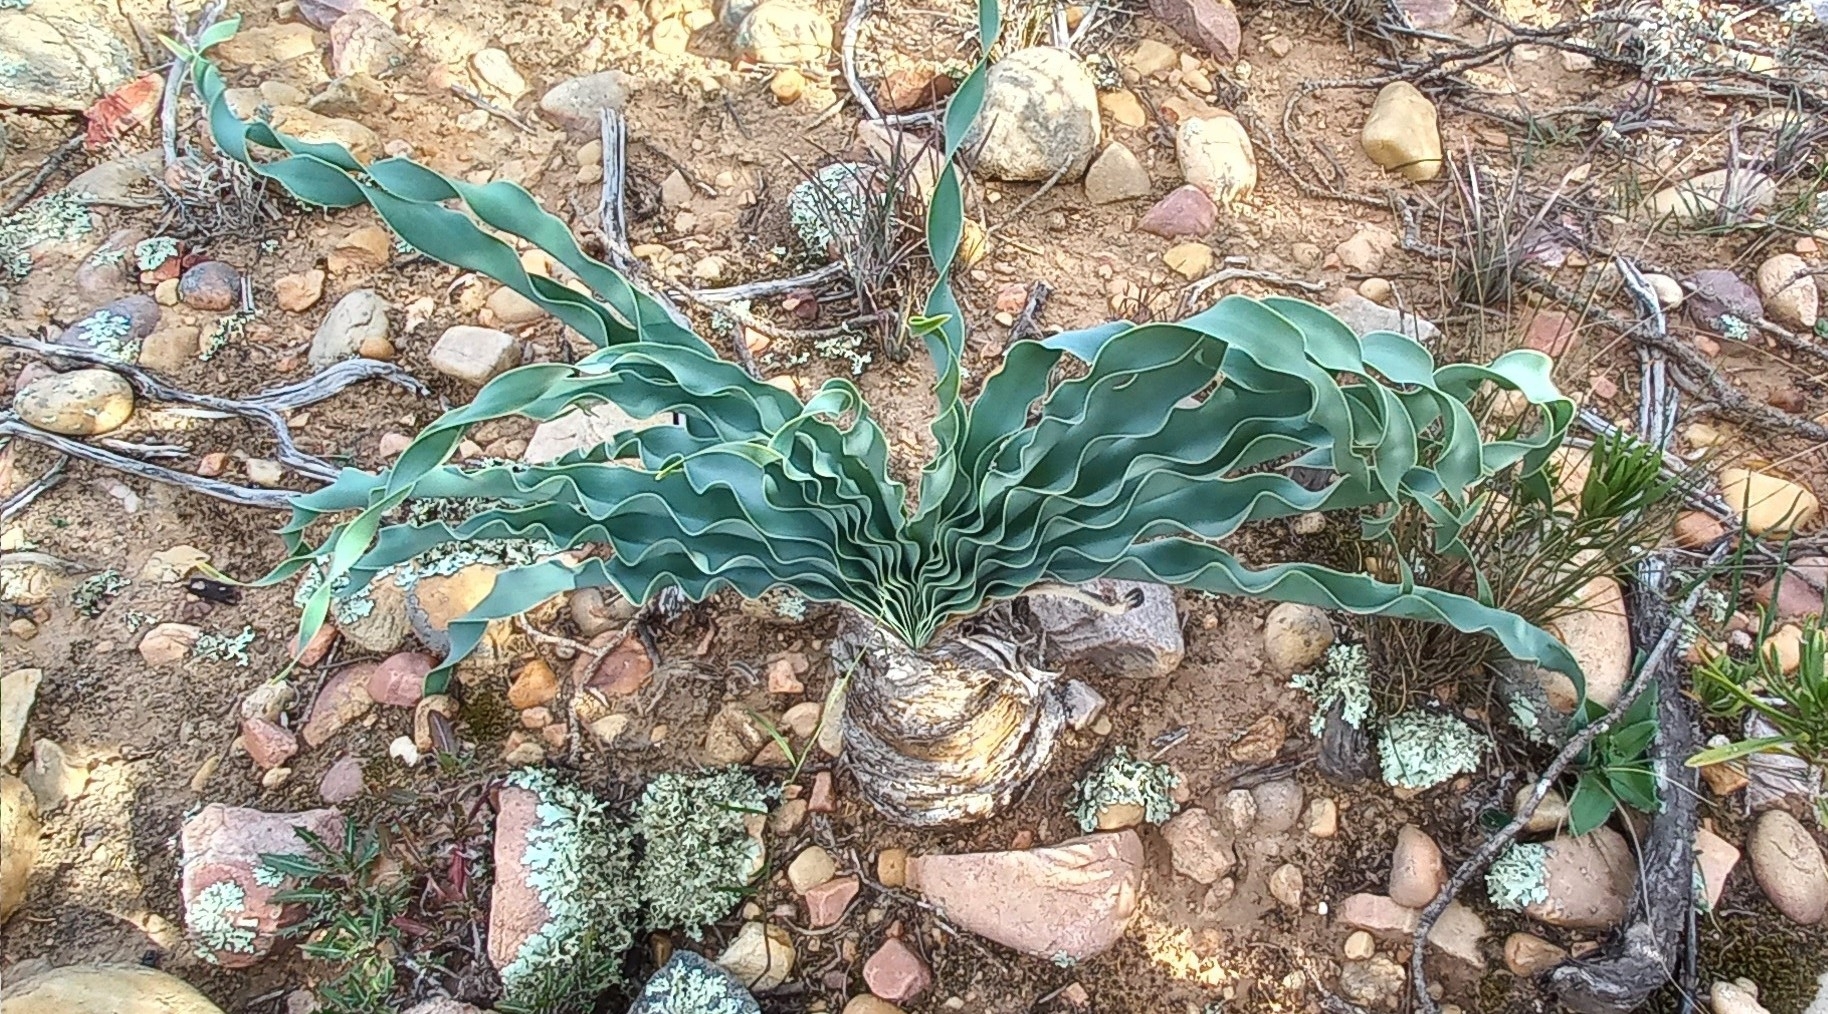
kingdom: Plantae
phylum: Tracheophyta
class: Liliopsida
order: Asparagales
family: Amaryllidaceae
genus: Boophone
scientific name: Boophone disticha
